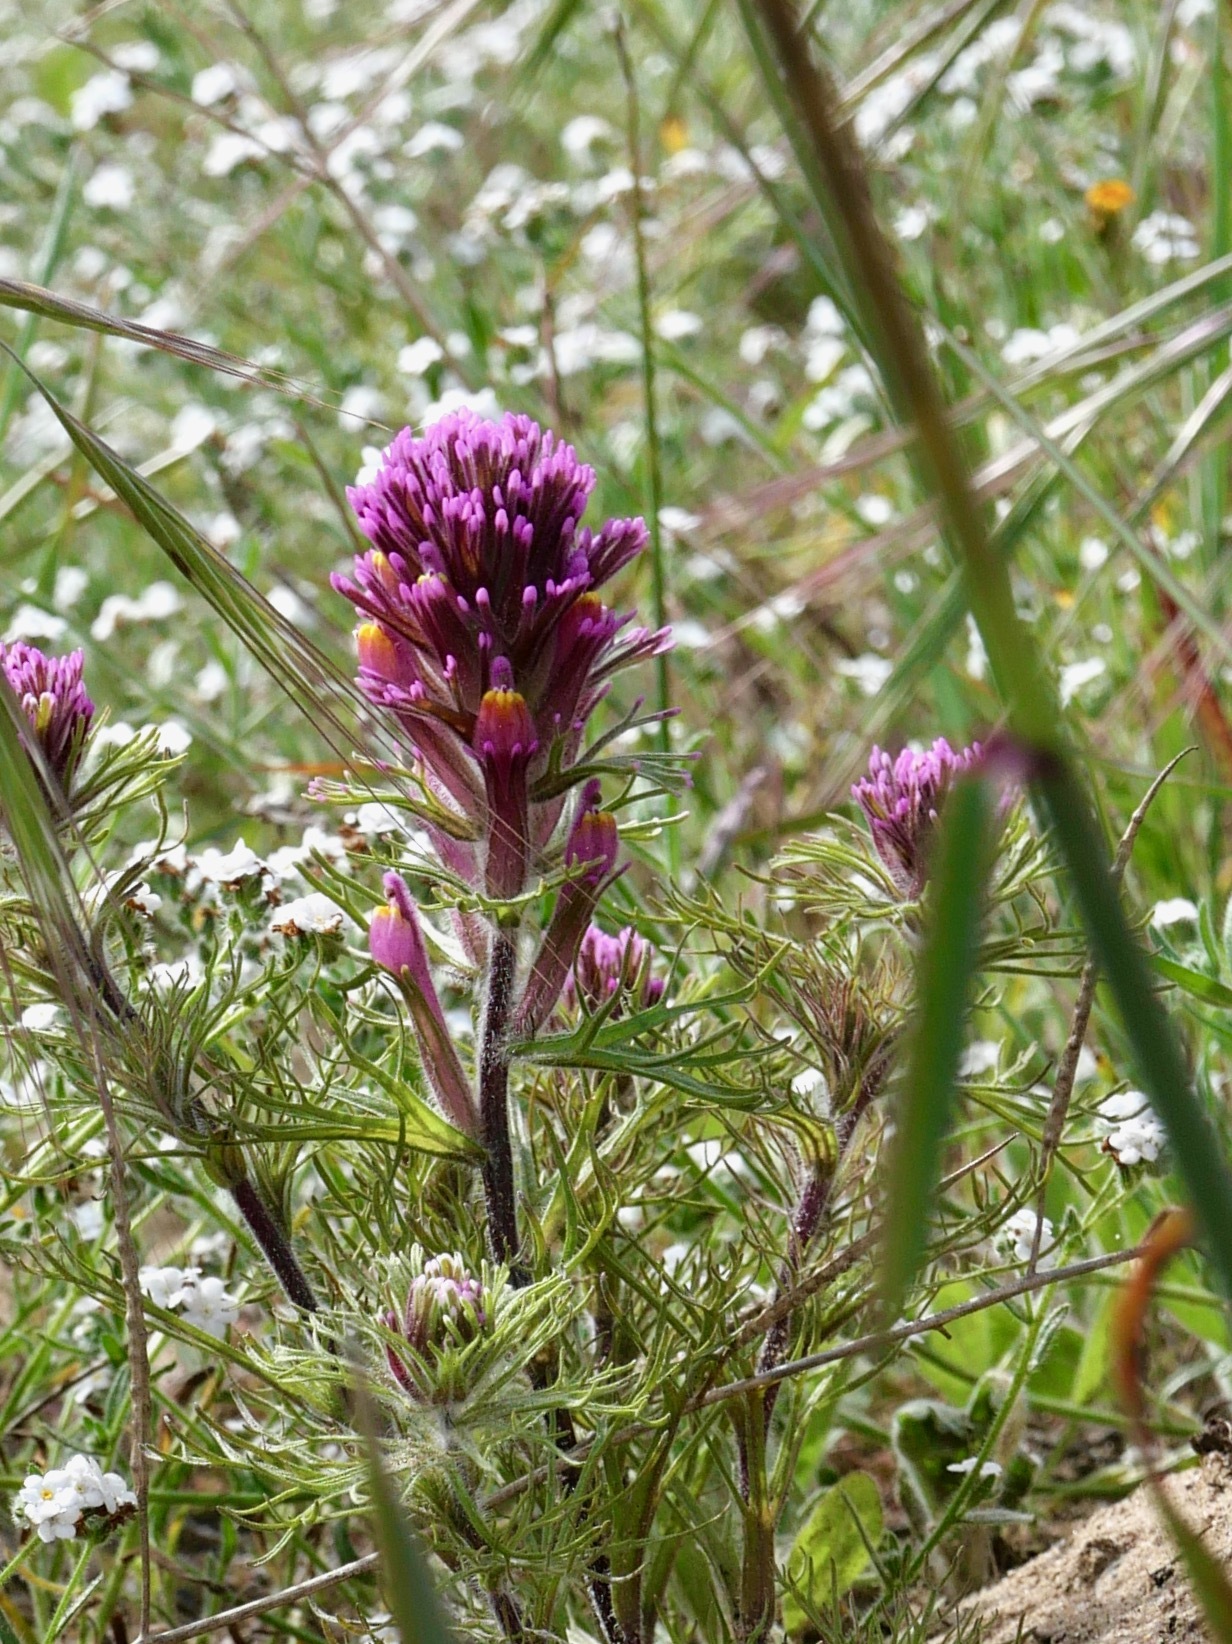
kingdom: Plantae
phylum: Tracheophyta
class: Magnoliopsida
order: Lamiales
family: Orobanchaceae
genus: Castilleja
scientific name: Castilleja exserta
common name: Purple owl-clover
